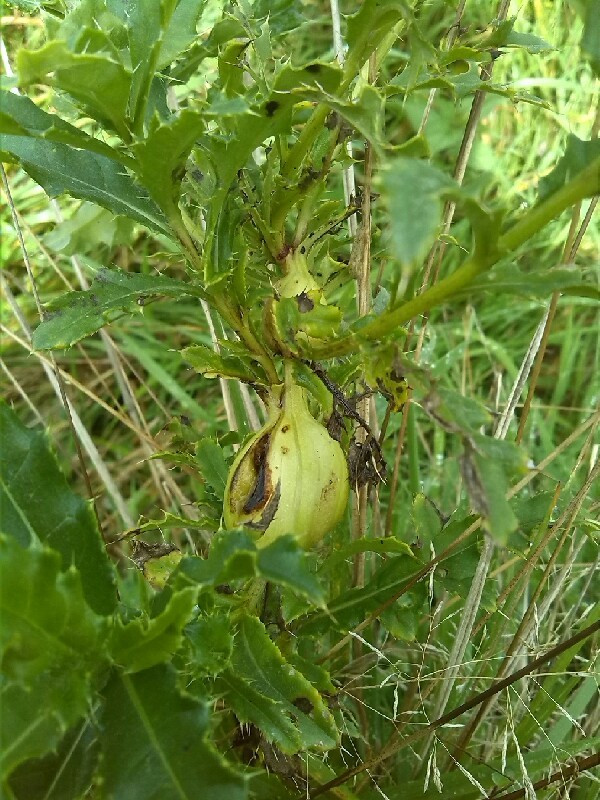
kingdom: Animalia
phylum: Arthropoda
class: Insecta
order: Diptera
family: Tephritidae
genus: Urophora
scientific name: Urophora cardui
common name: Fruit fly
